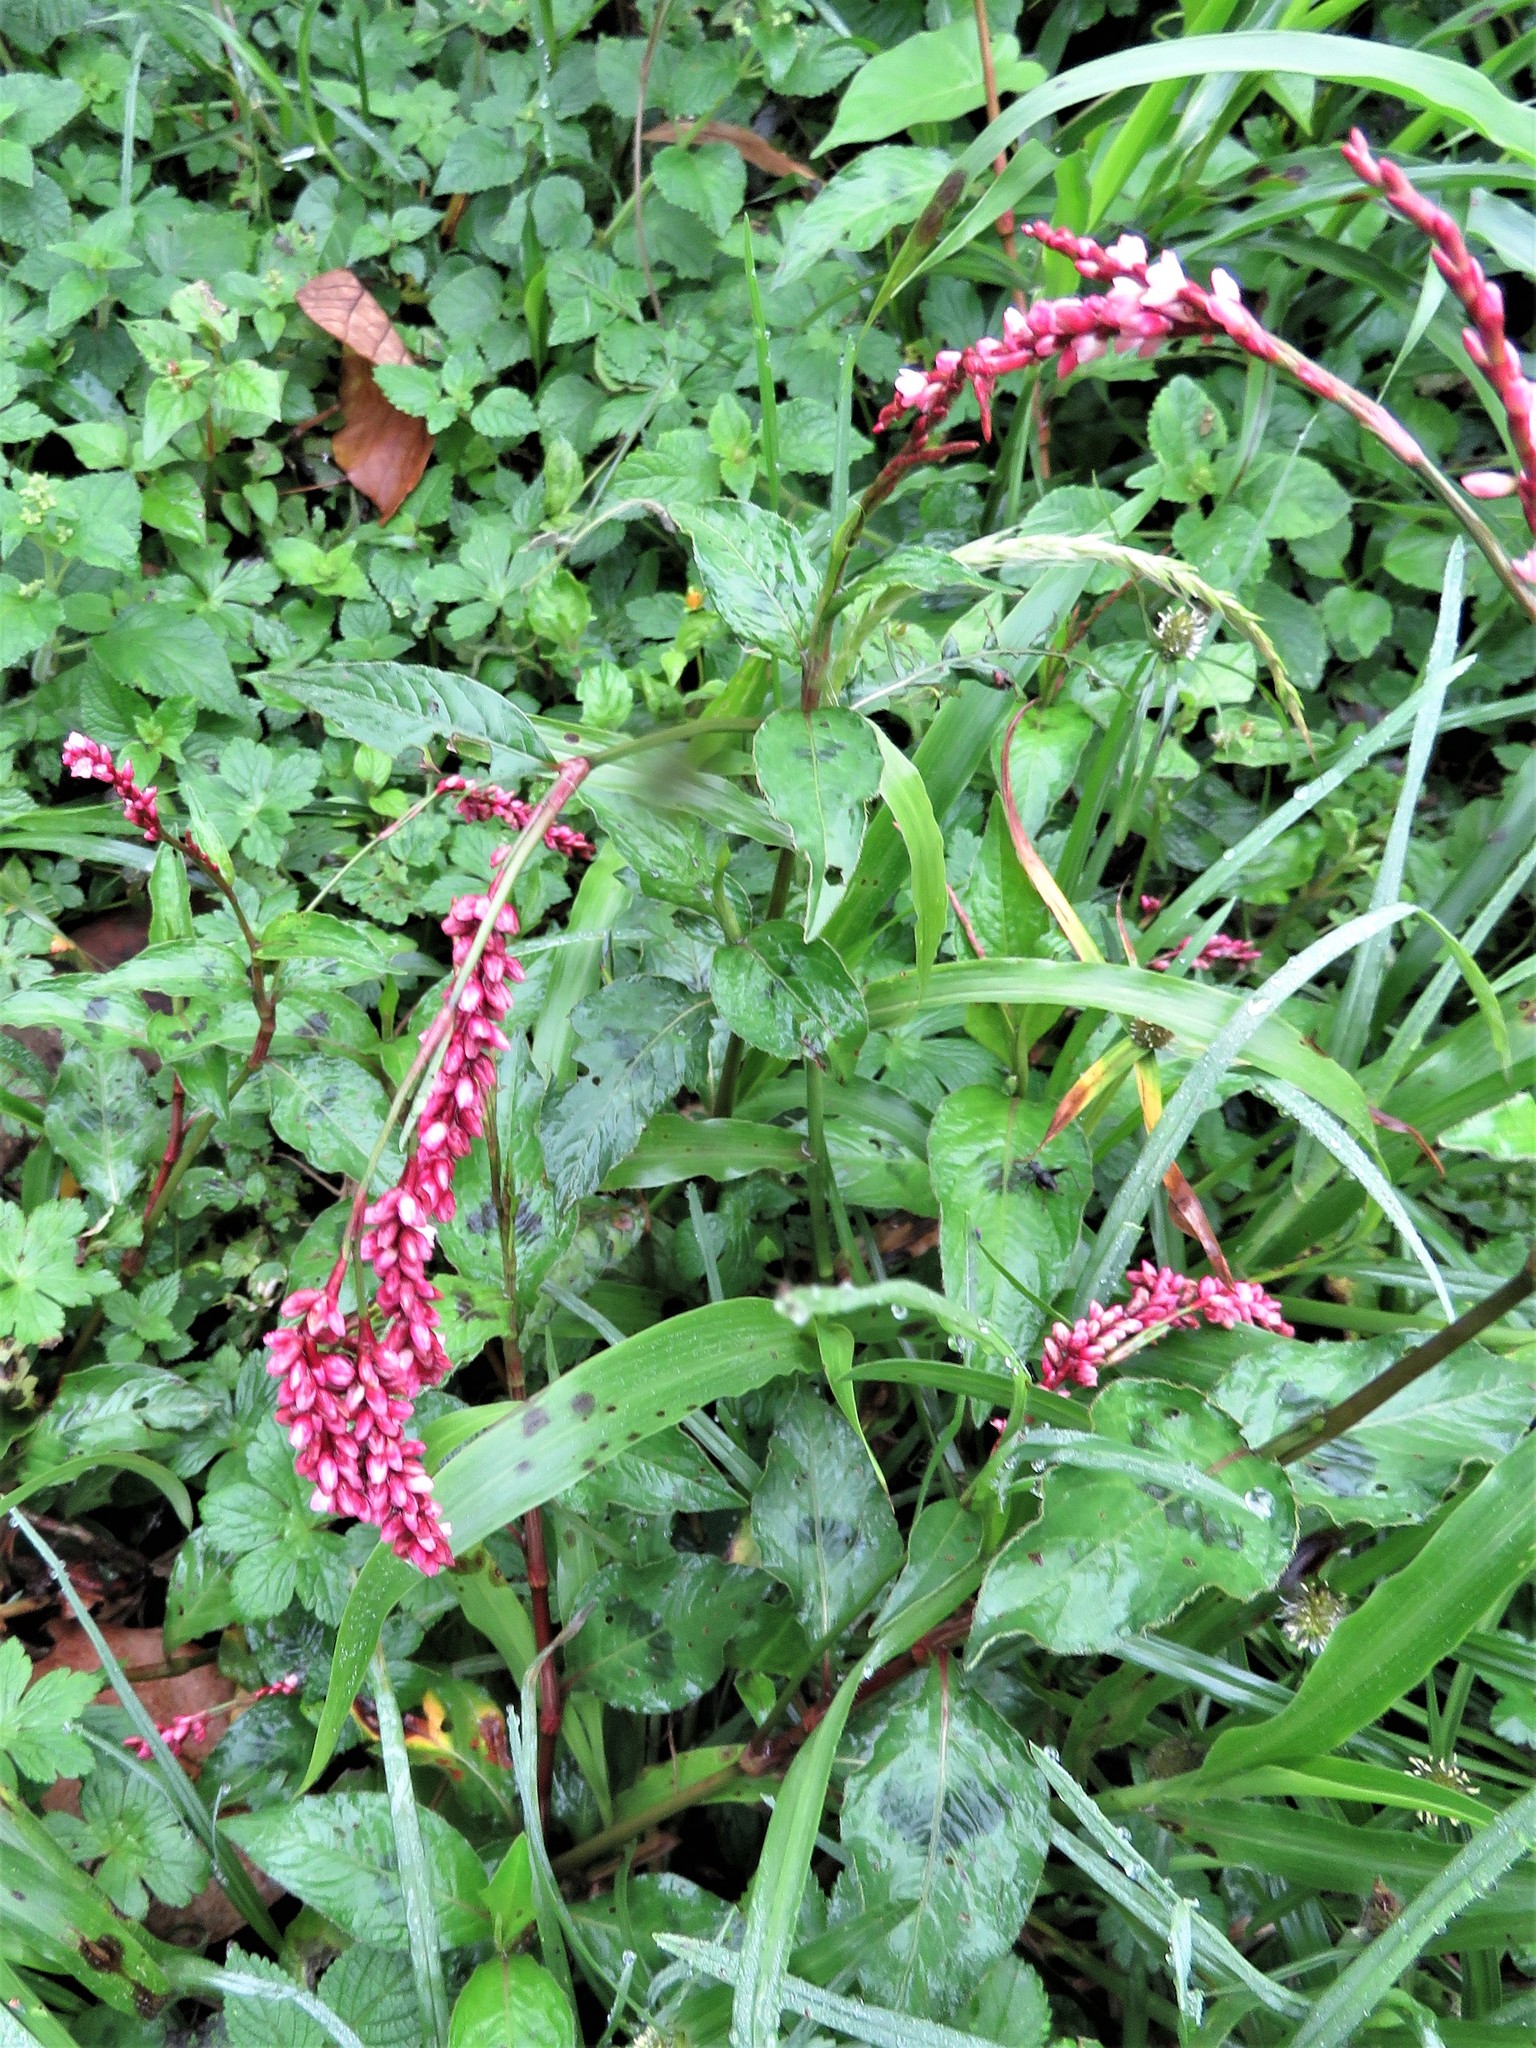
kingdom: Plantae
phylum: Tracheophyta
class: Magnoliopsida
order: Caryophyllales
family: Polygonaceae
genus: Persicaria
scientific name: Persicaria maculosa
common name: Redshank
